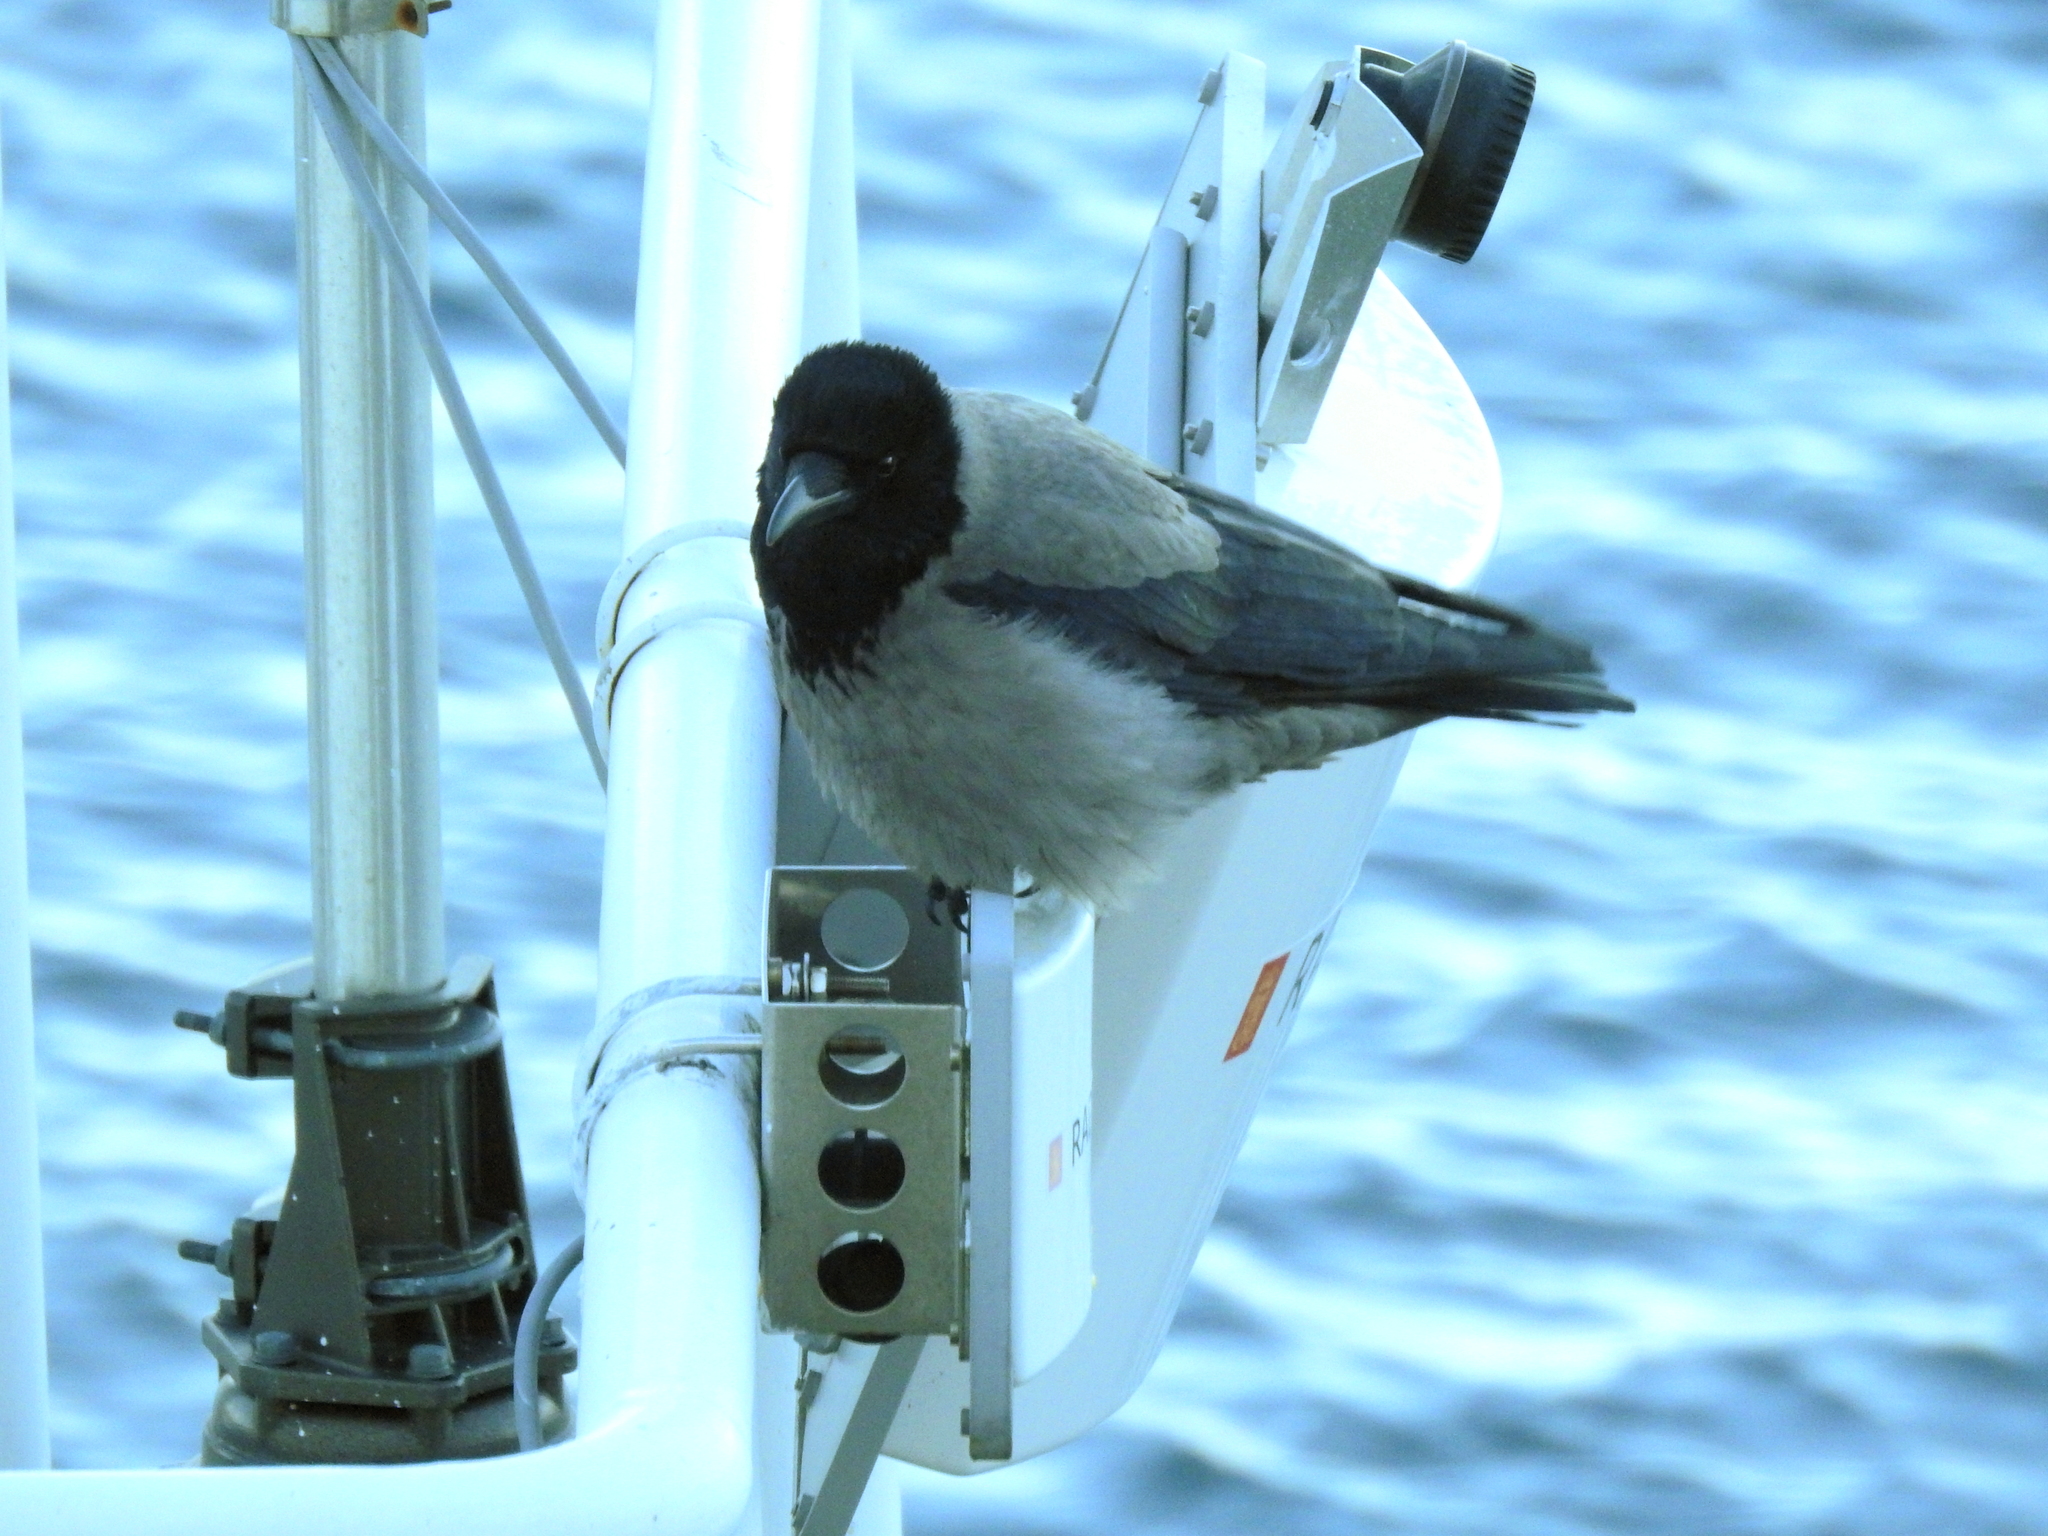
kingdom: Animalia
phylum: Chordata
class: Aves
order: Passeriformes
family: Corvidae
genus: Corvus
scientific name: Corvus cornix
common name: Hooded crow
